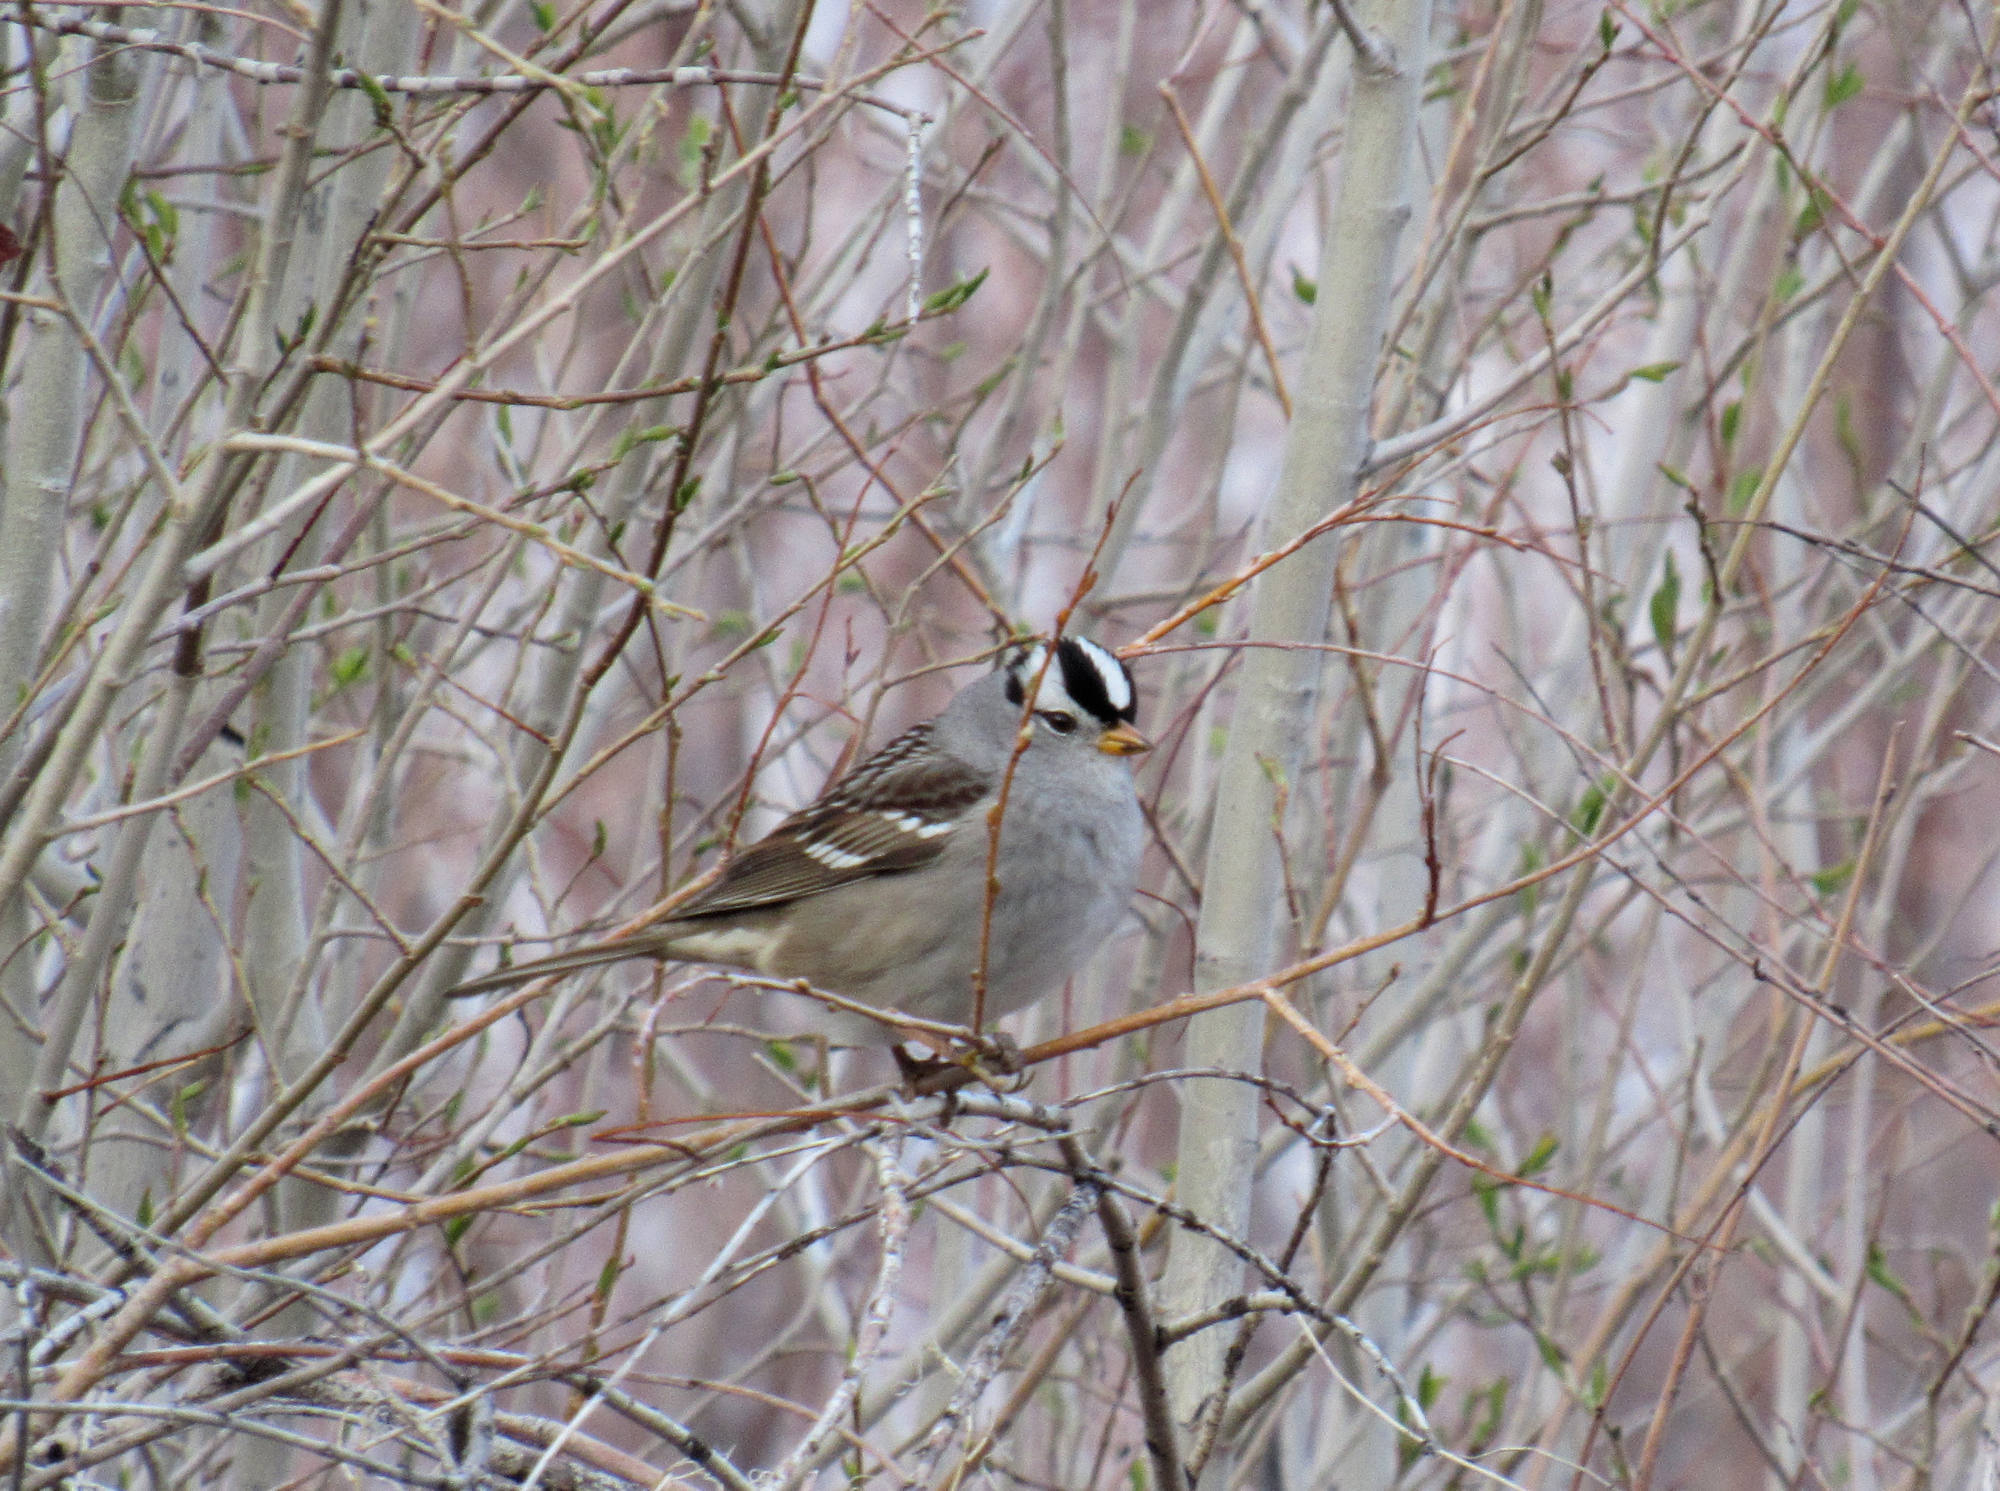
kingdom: Animalia
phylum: Chordata
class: Aves
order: Passeriformes
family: Passerellidae
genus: Zonotrichia
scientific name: Zonotrichia leucophrys
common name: White-crowned sparrow
